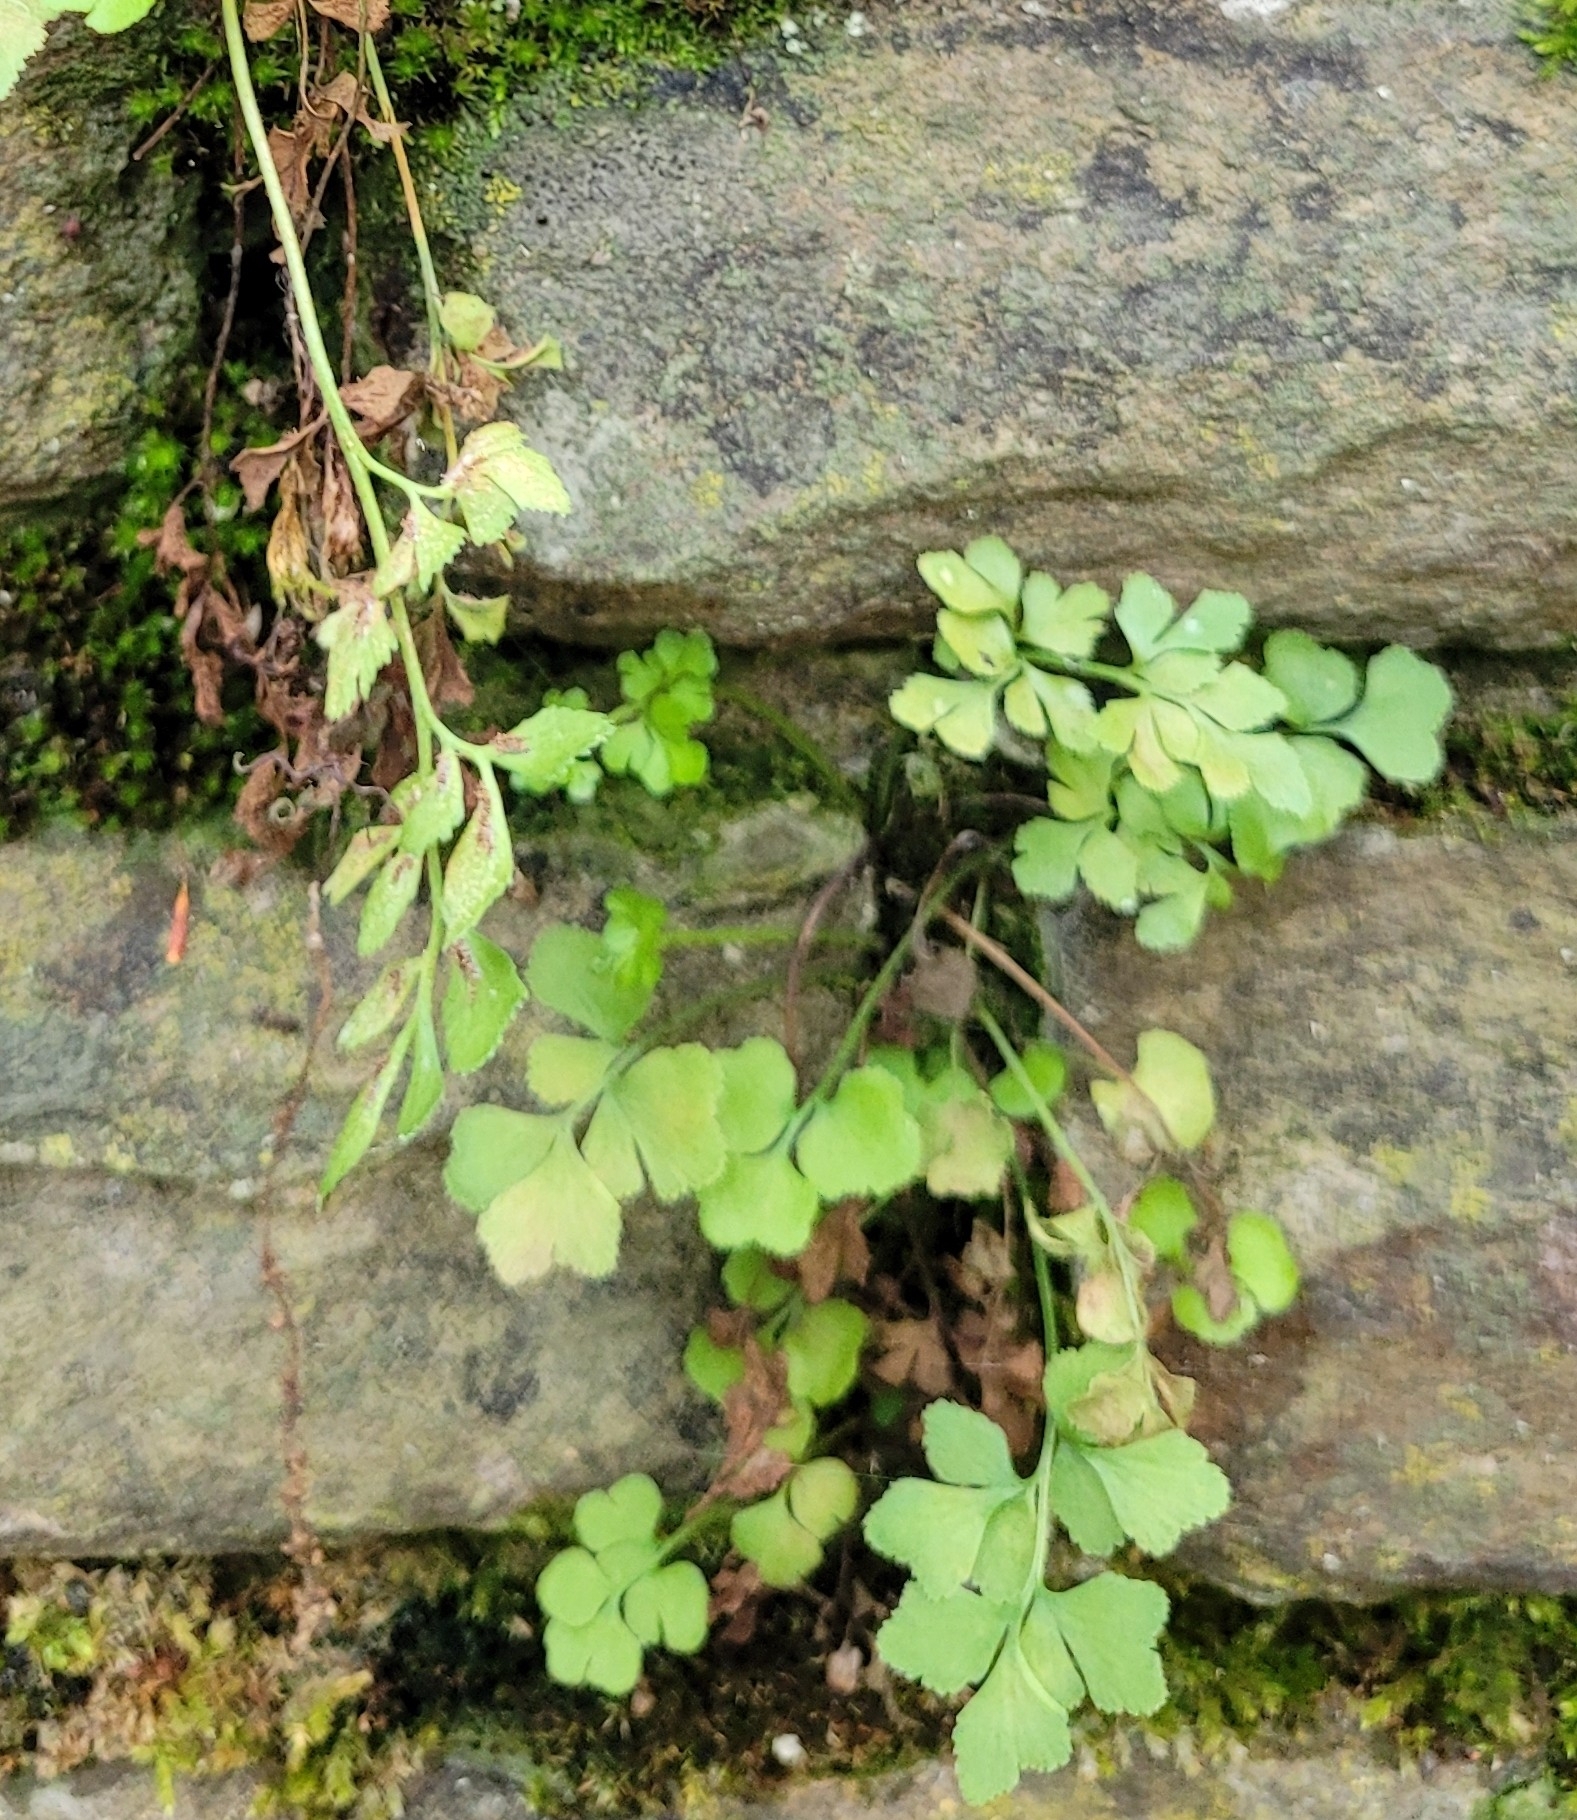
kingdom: Plantae
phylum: Tracheophyta
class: Polypodiopsida
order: Polypodiales
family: Aspleniaceae
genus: Asplenium
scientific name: Asplenium ruta-muraria
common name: Wall-rue
